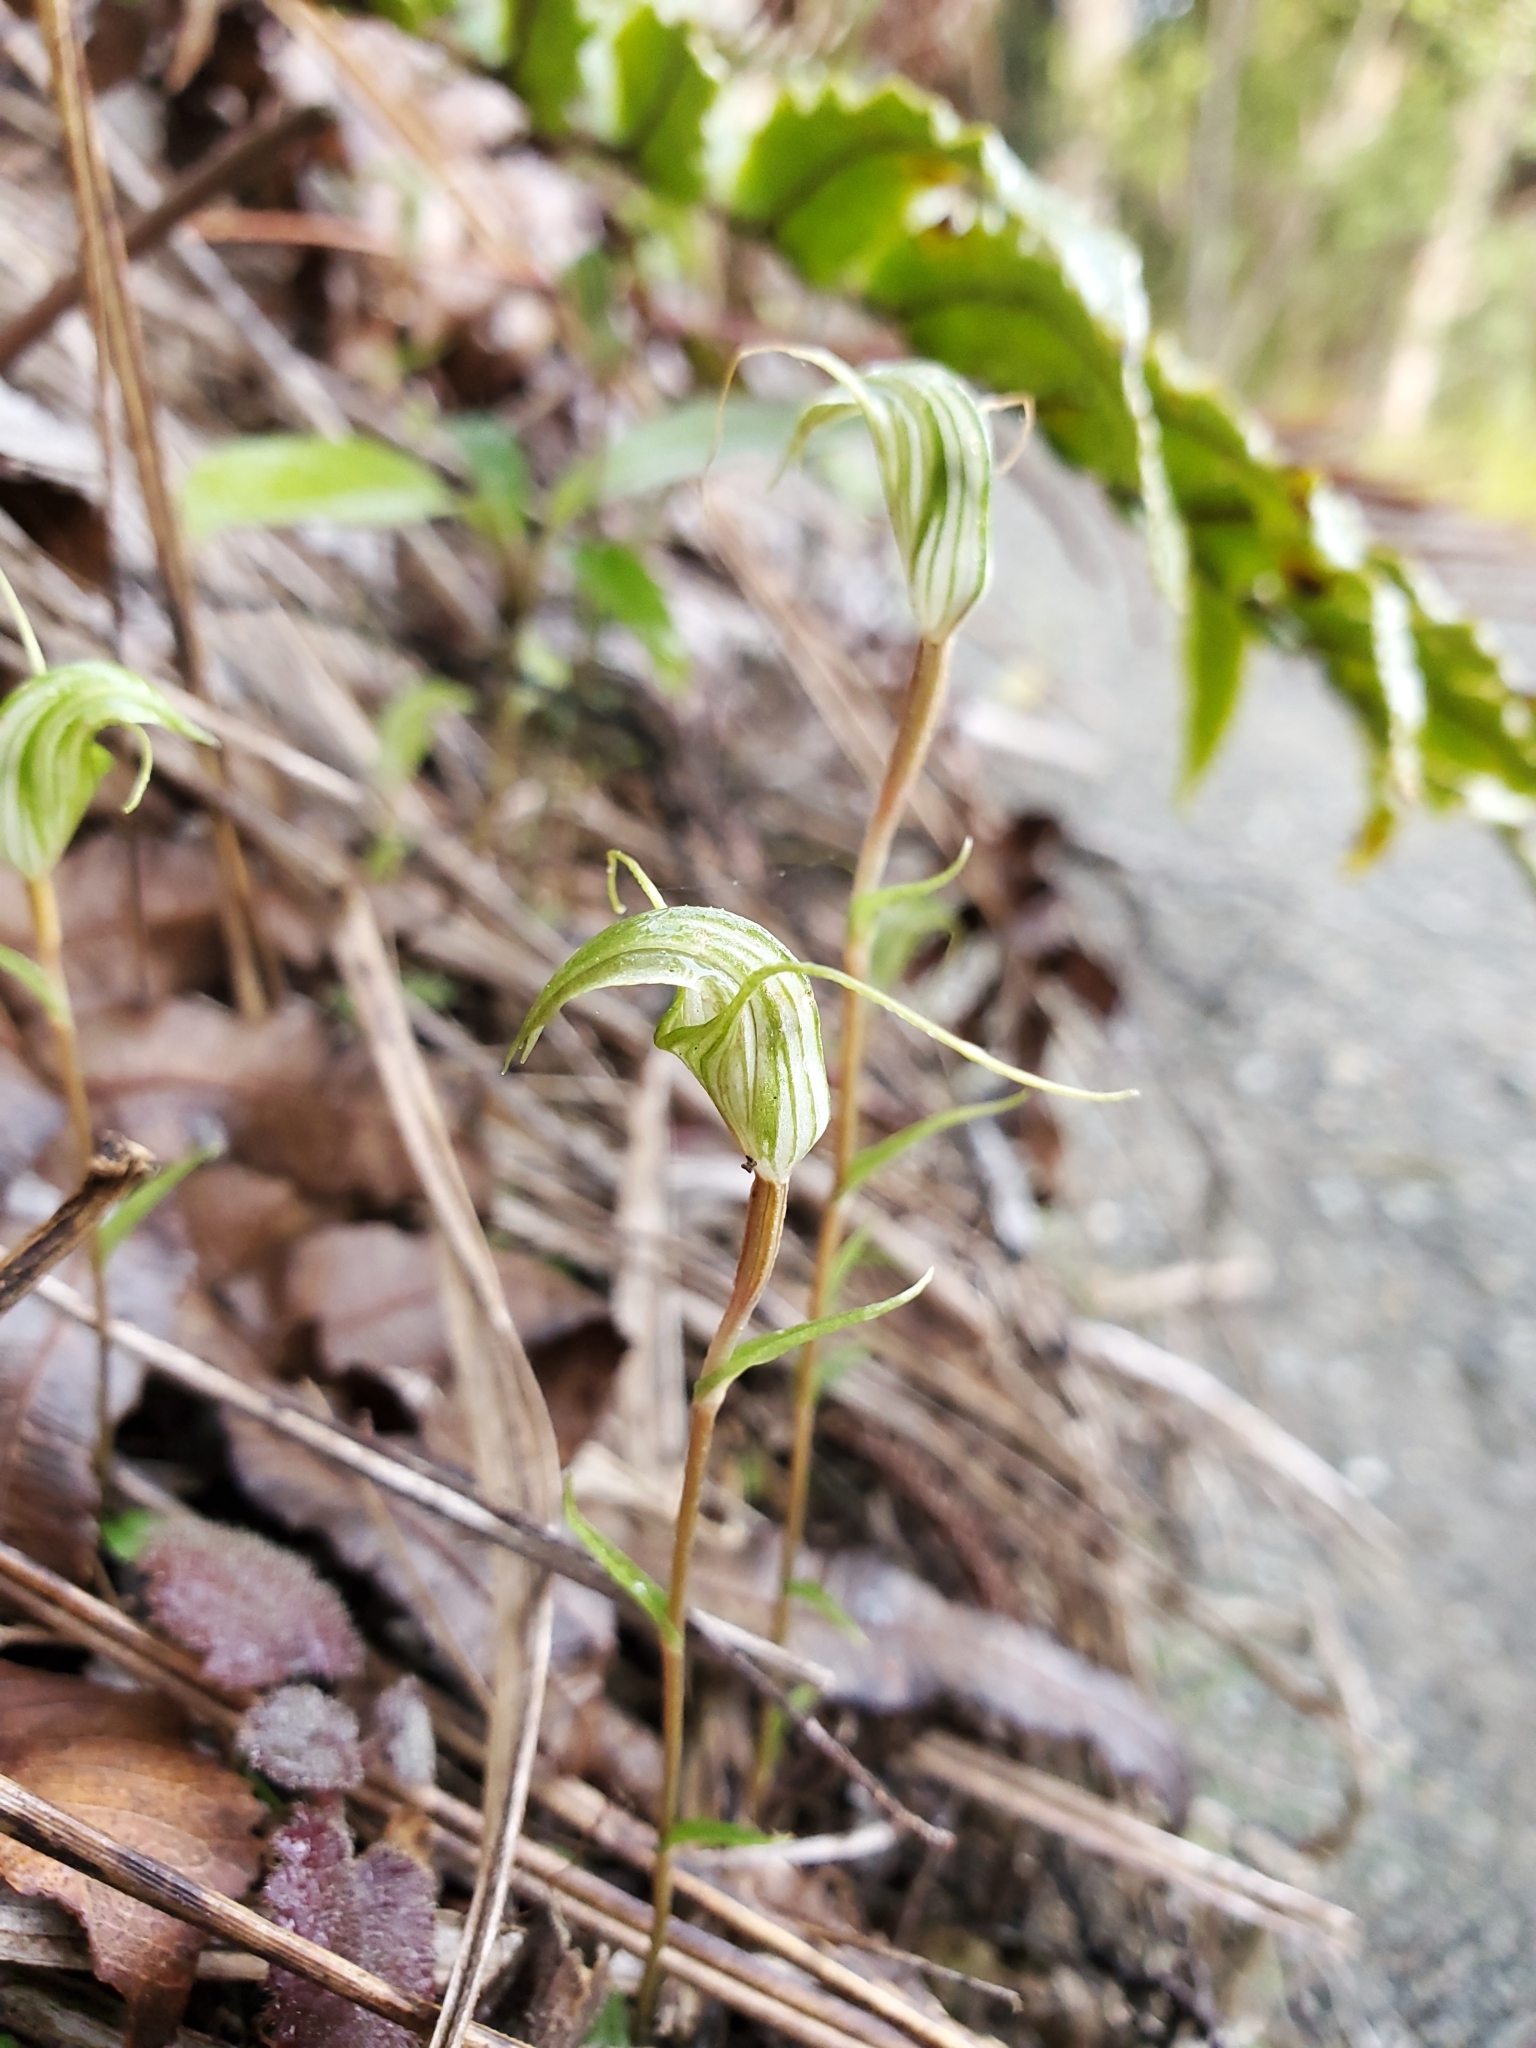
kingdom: Plantae
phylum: Tracheophyta
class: Liliopsida
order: Asparagales
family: Orchidaceae
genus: Pterostylis
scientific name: Pterostylis trullifolia
